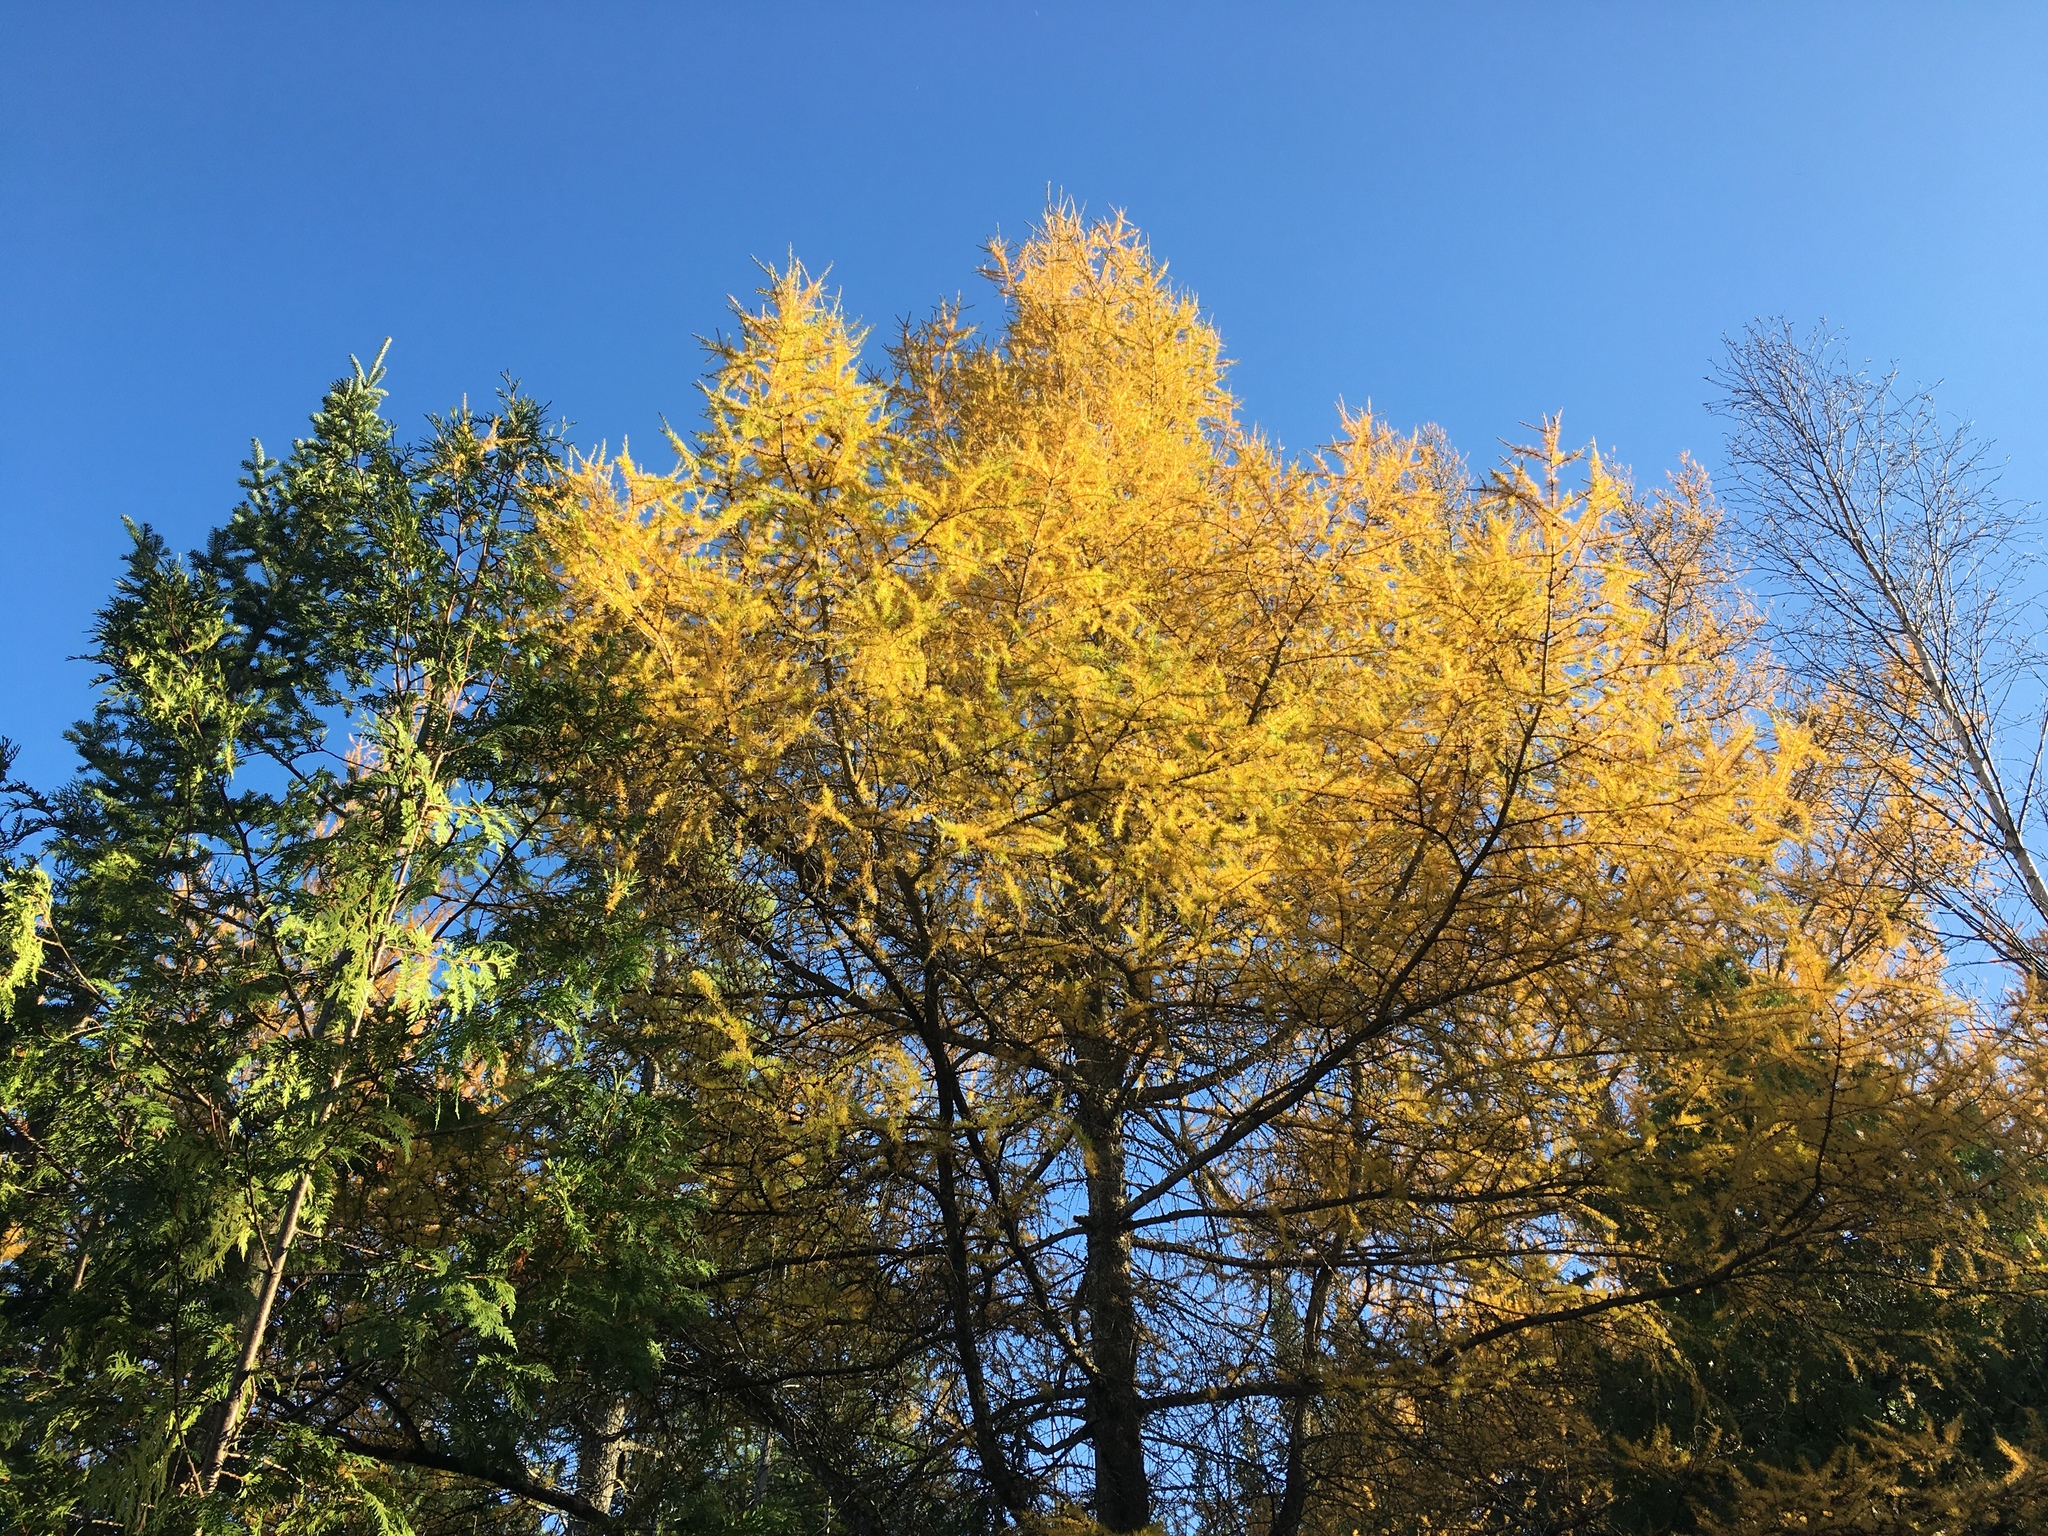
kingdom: Plantae
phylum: Tracheophyta
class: Pinopsida
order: Pinales
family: Pinaceae
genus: Larix
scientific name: Larix laricina
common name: American larch
